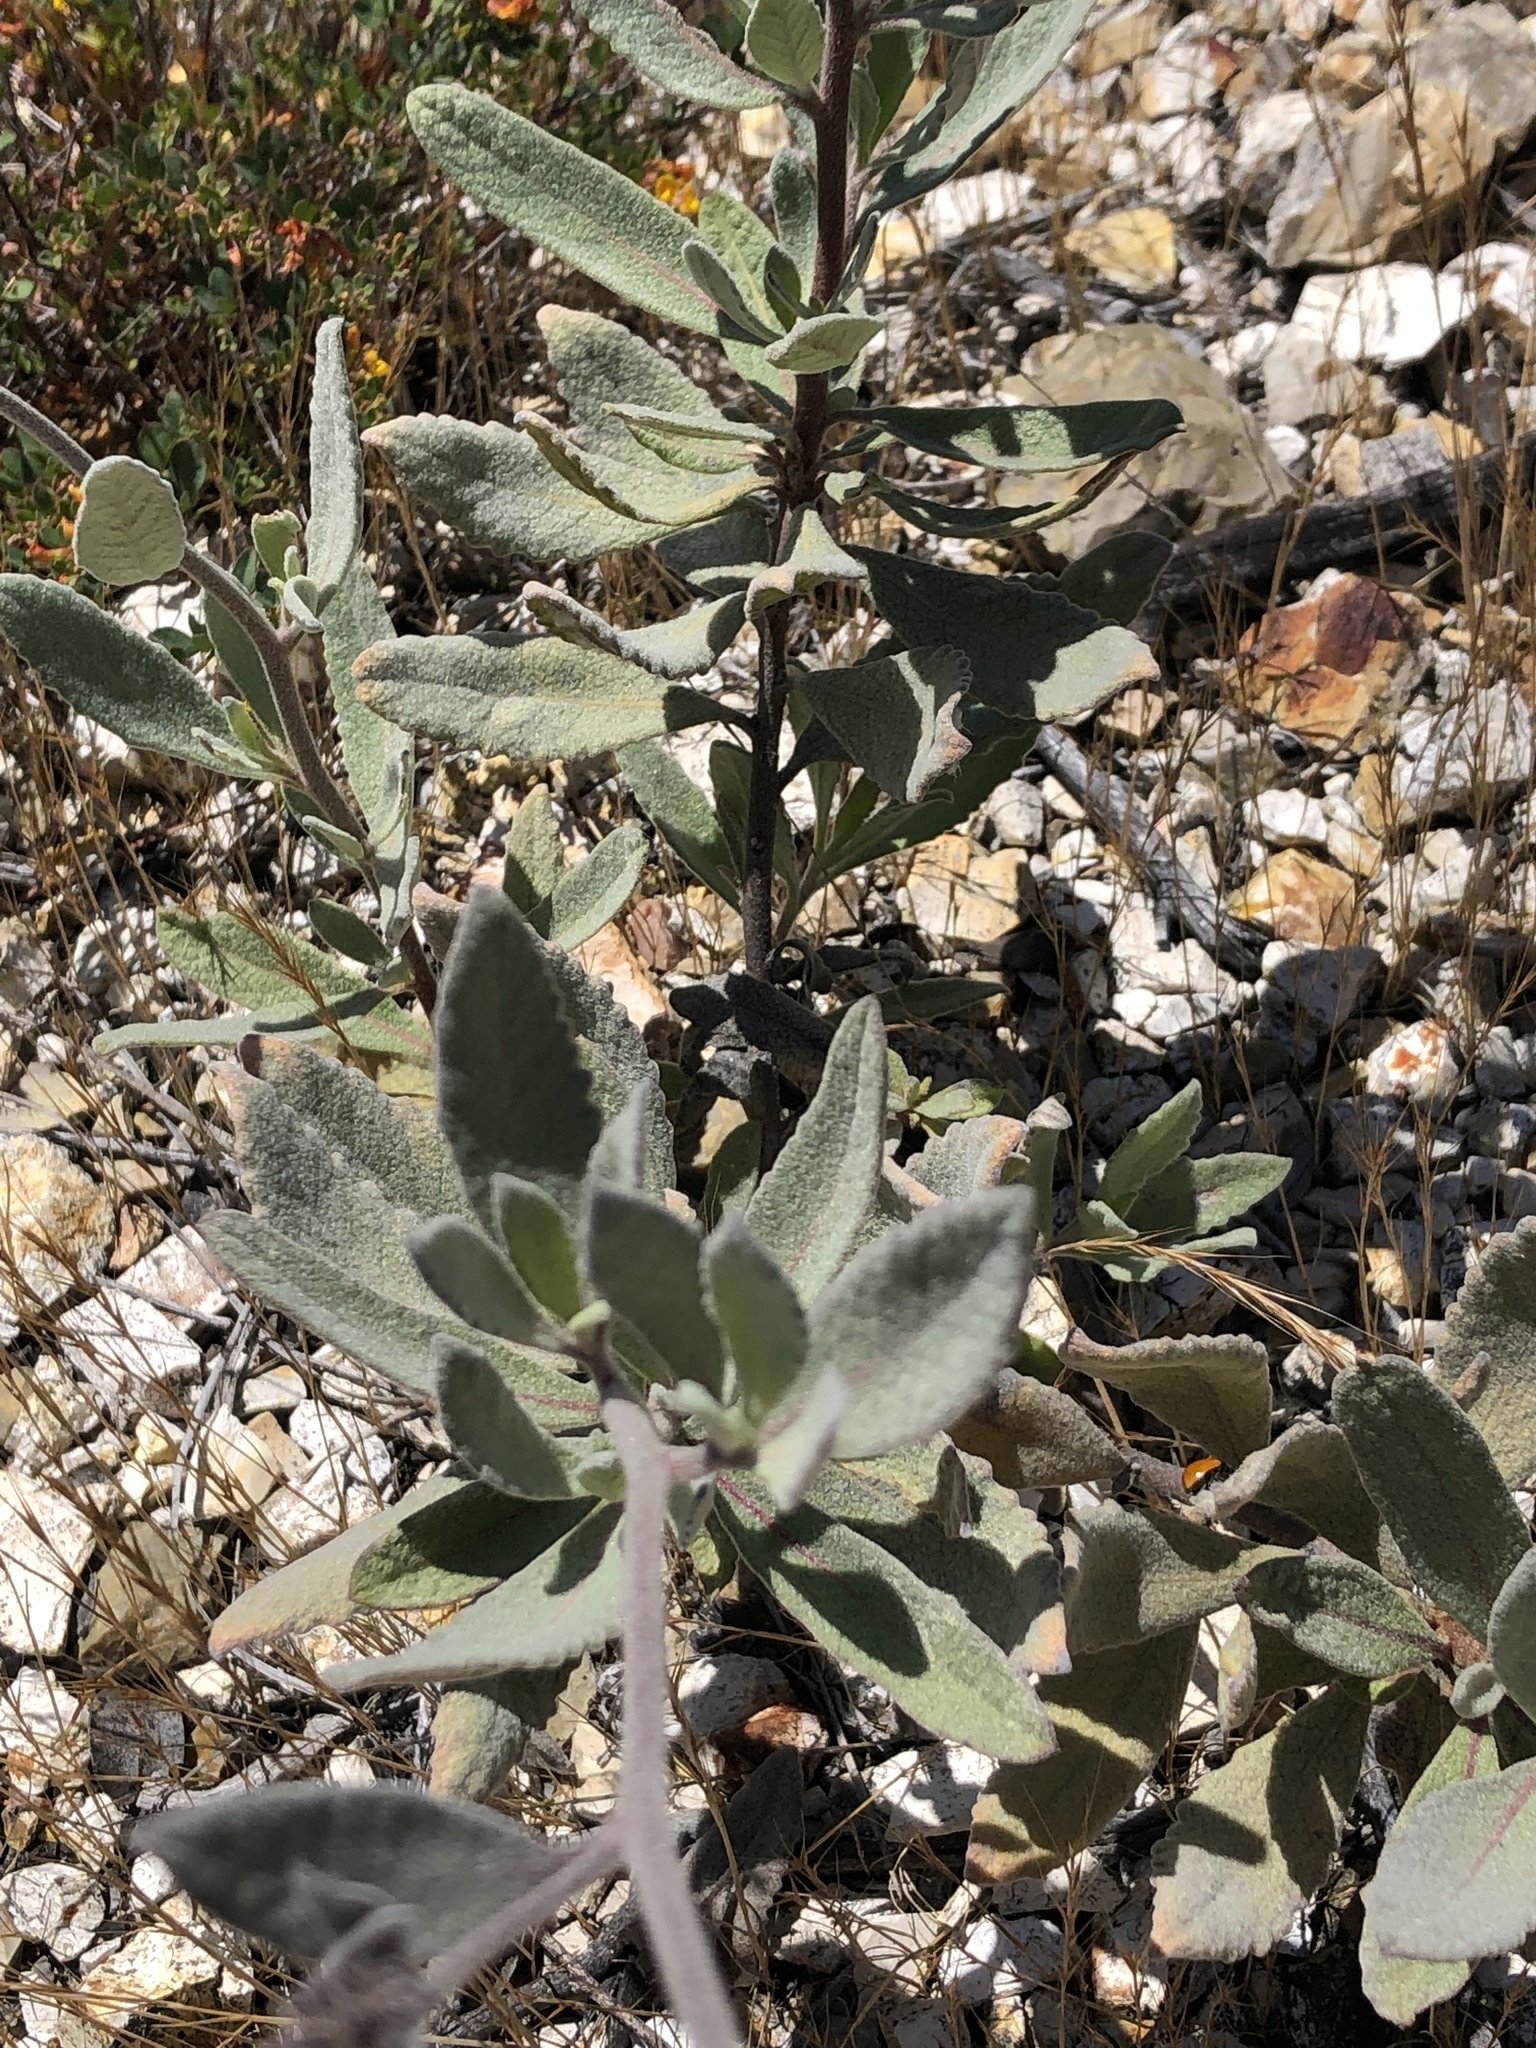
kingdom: Plantae
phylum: Tracheophyta
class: Magnoliopsida
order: Boraginales
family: Namaceae
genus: Eriodictyon
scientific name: Eriodictyon traskiae
